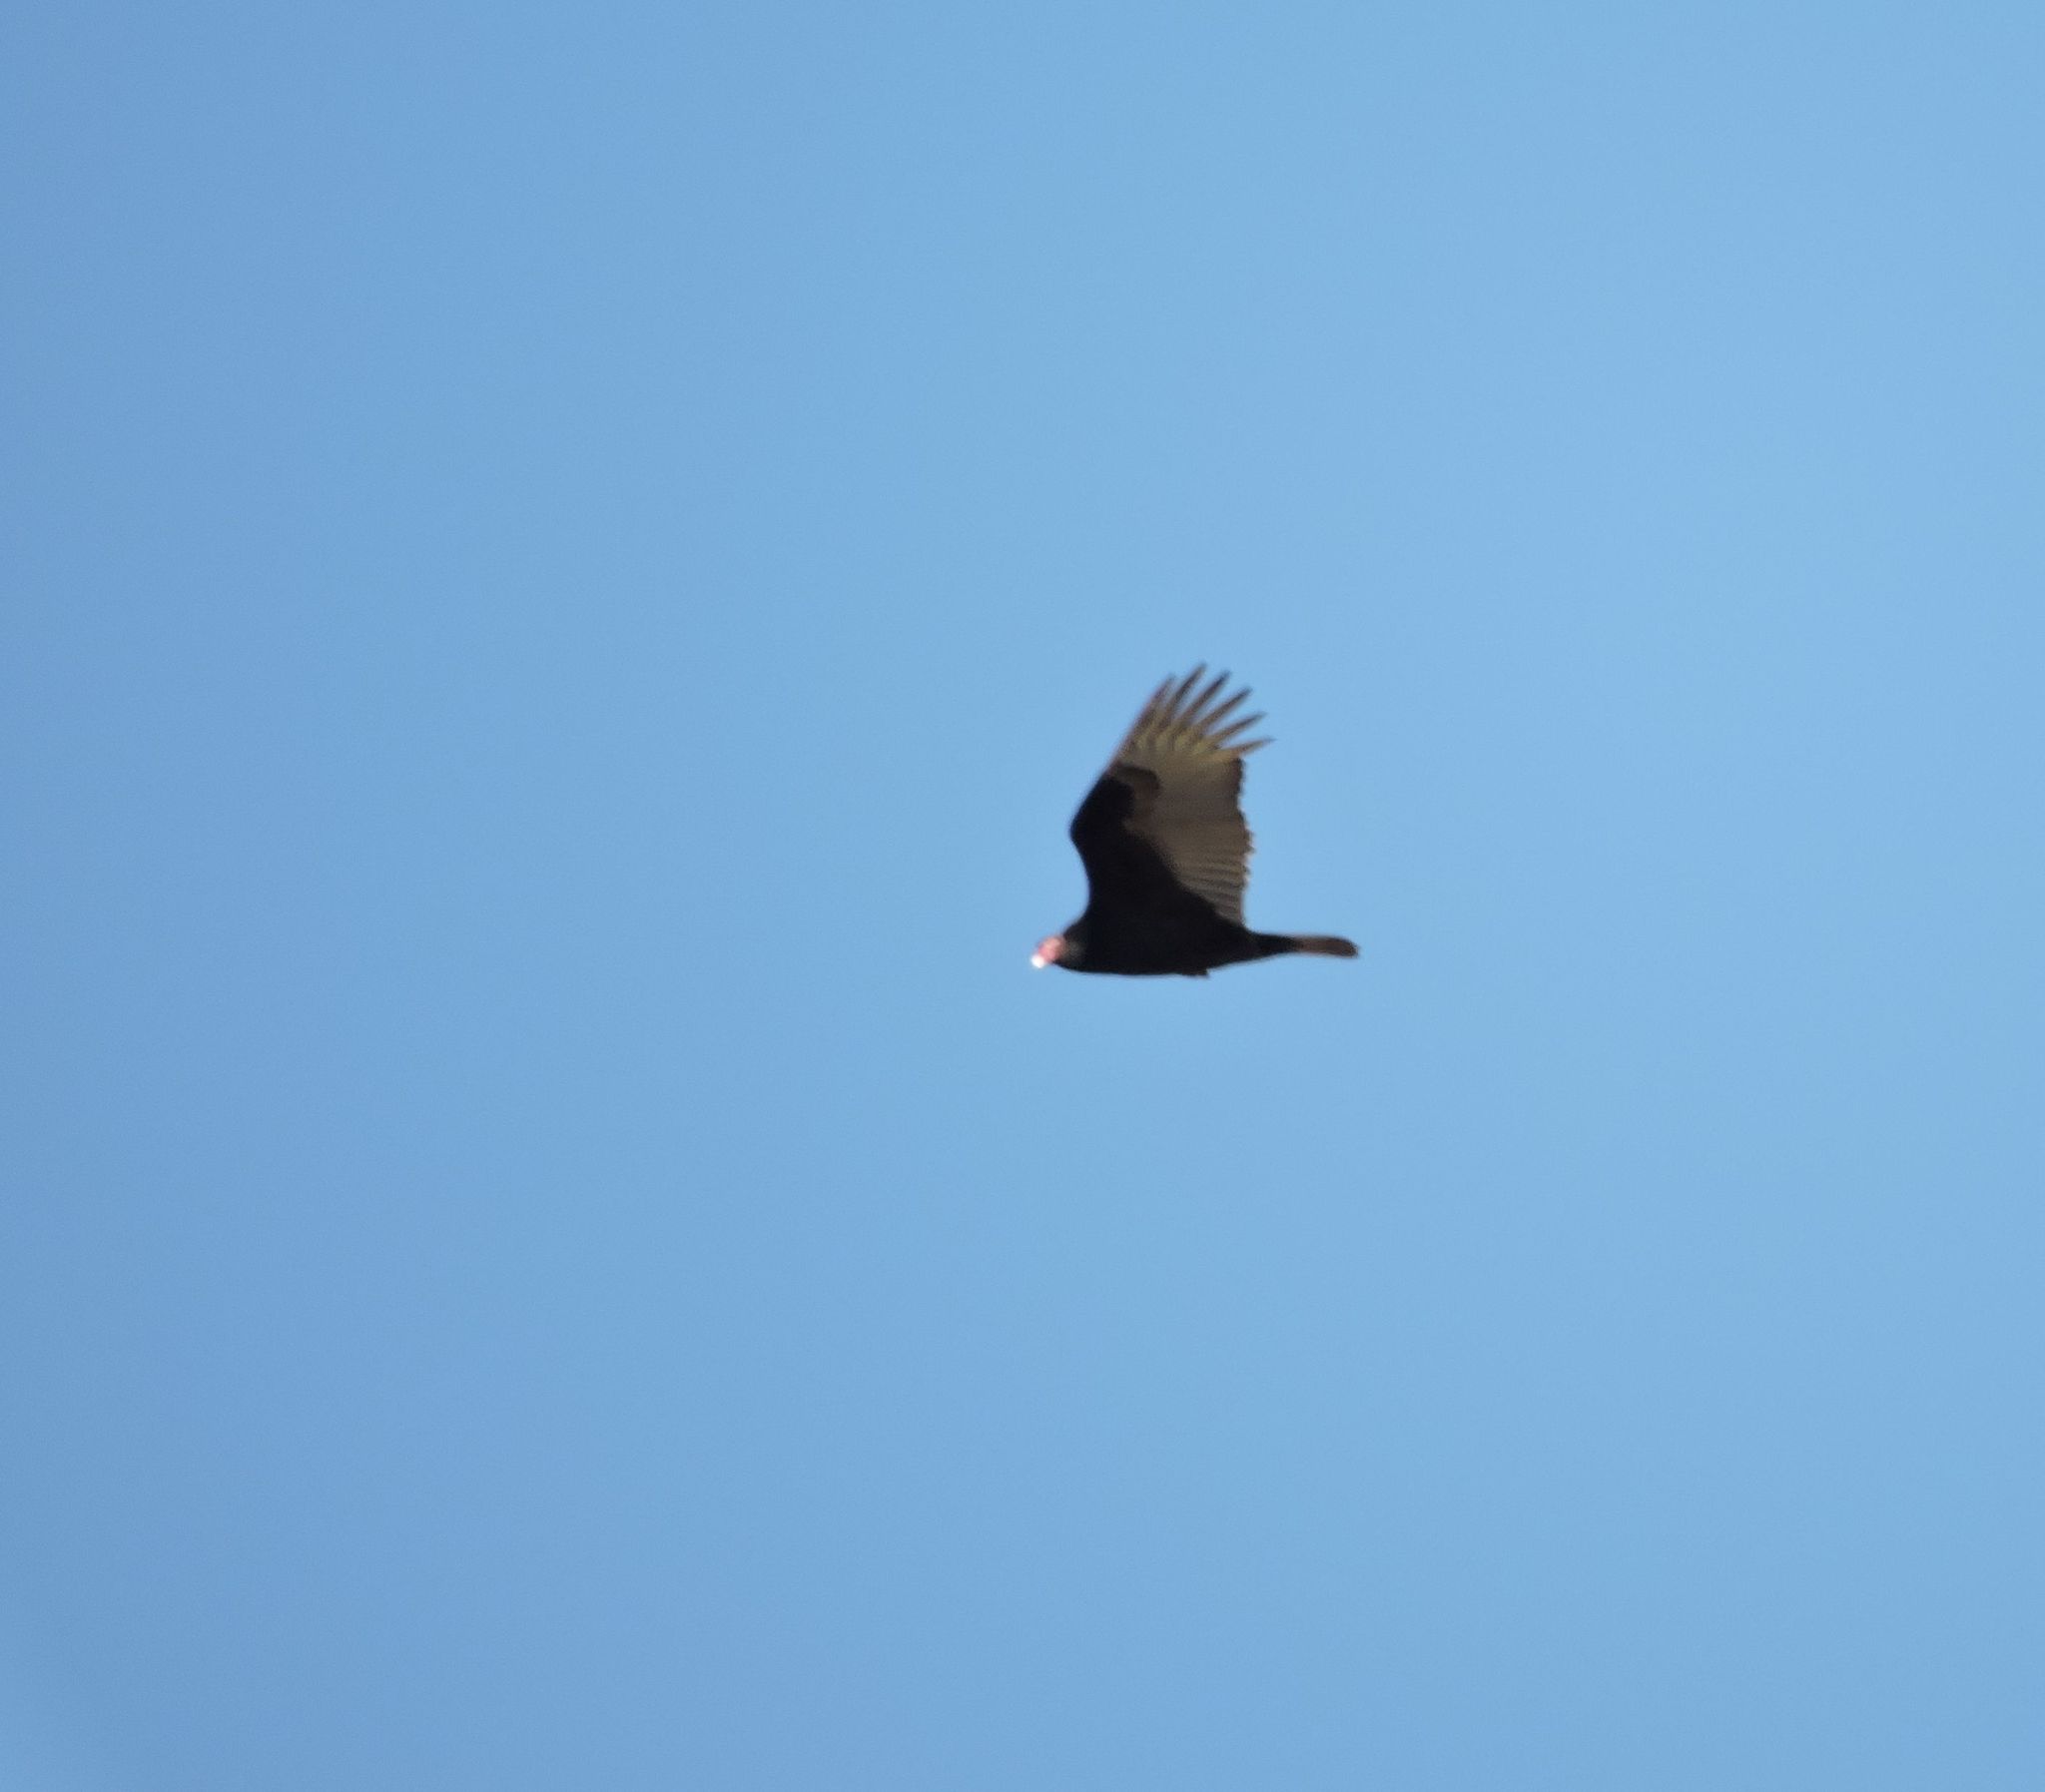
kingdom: Animalia
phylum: Chordata
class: Aves
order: Accipitriformes
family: Cathartidae
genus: Cathartes
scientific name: Cathartes aura
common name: Turkey vulture
